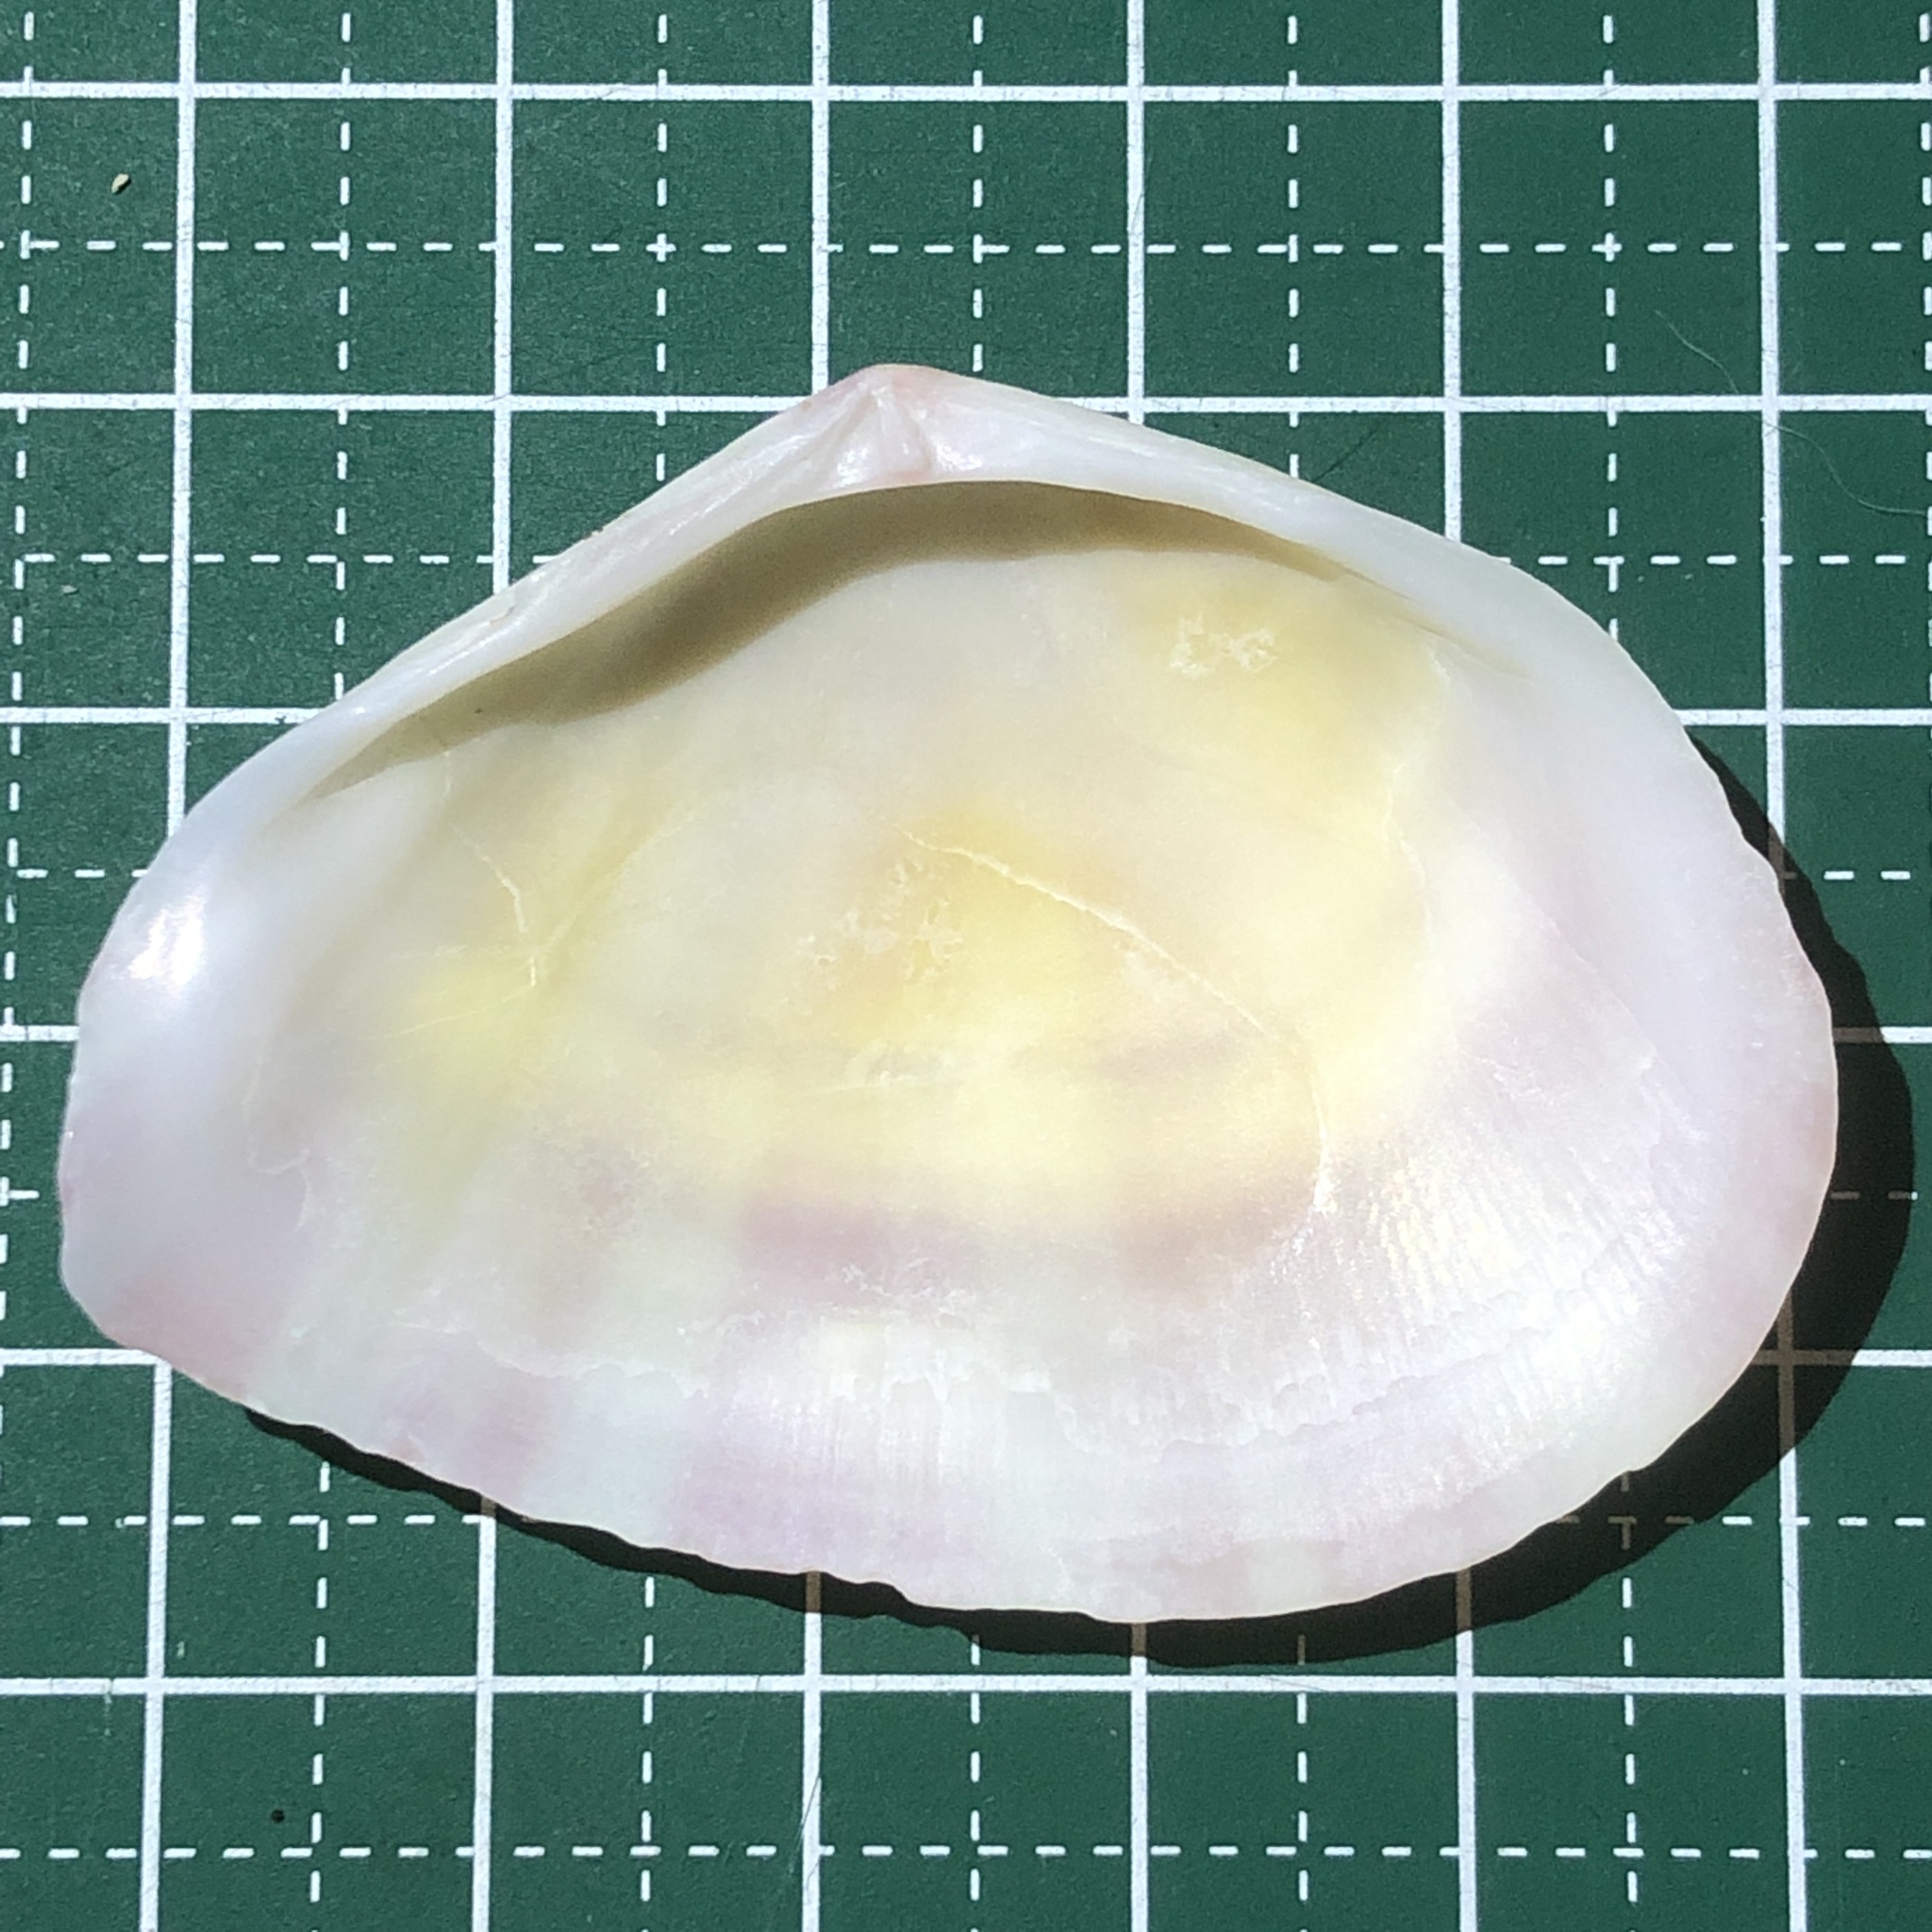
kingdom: Animalia
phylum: Mollusca
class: Bivalvia
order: Cardiida
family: Tellinidae
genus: Tellinella
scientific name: Tellinella virgata
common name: Striped tellin
